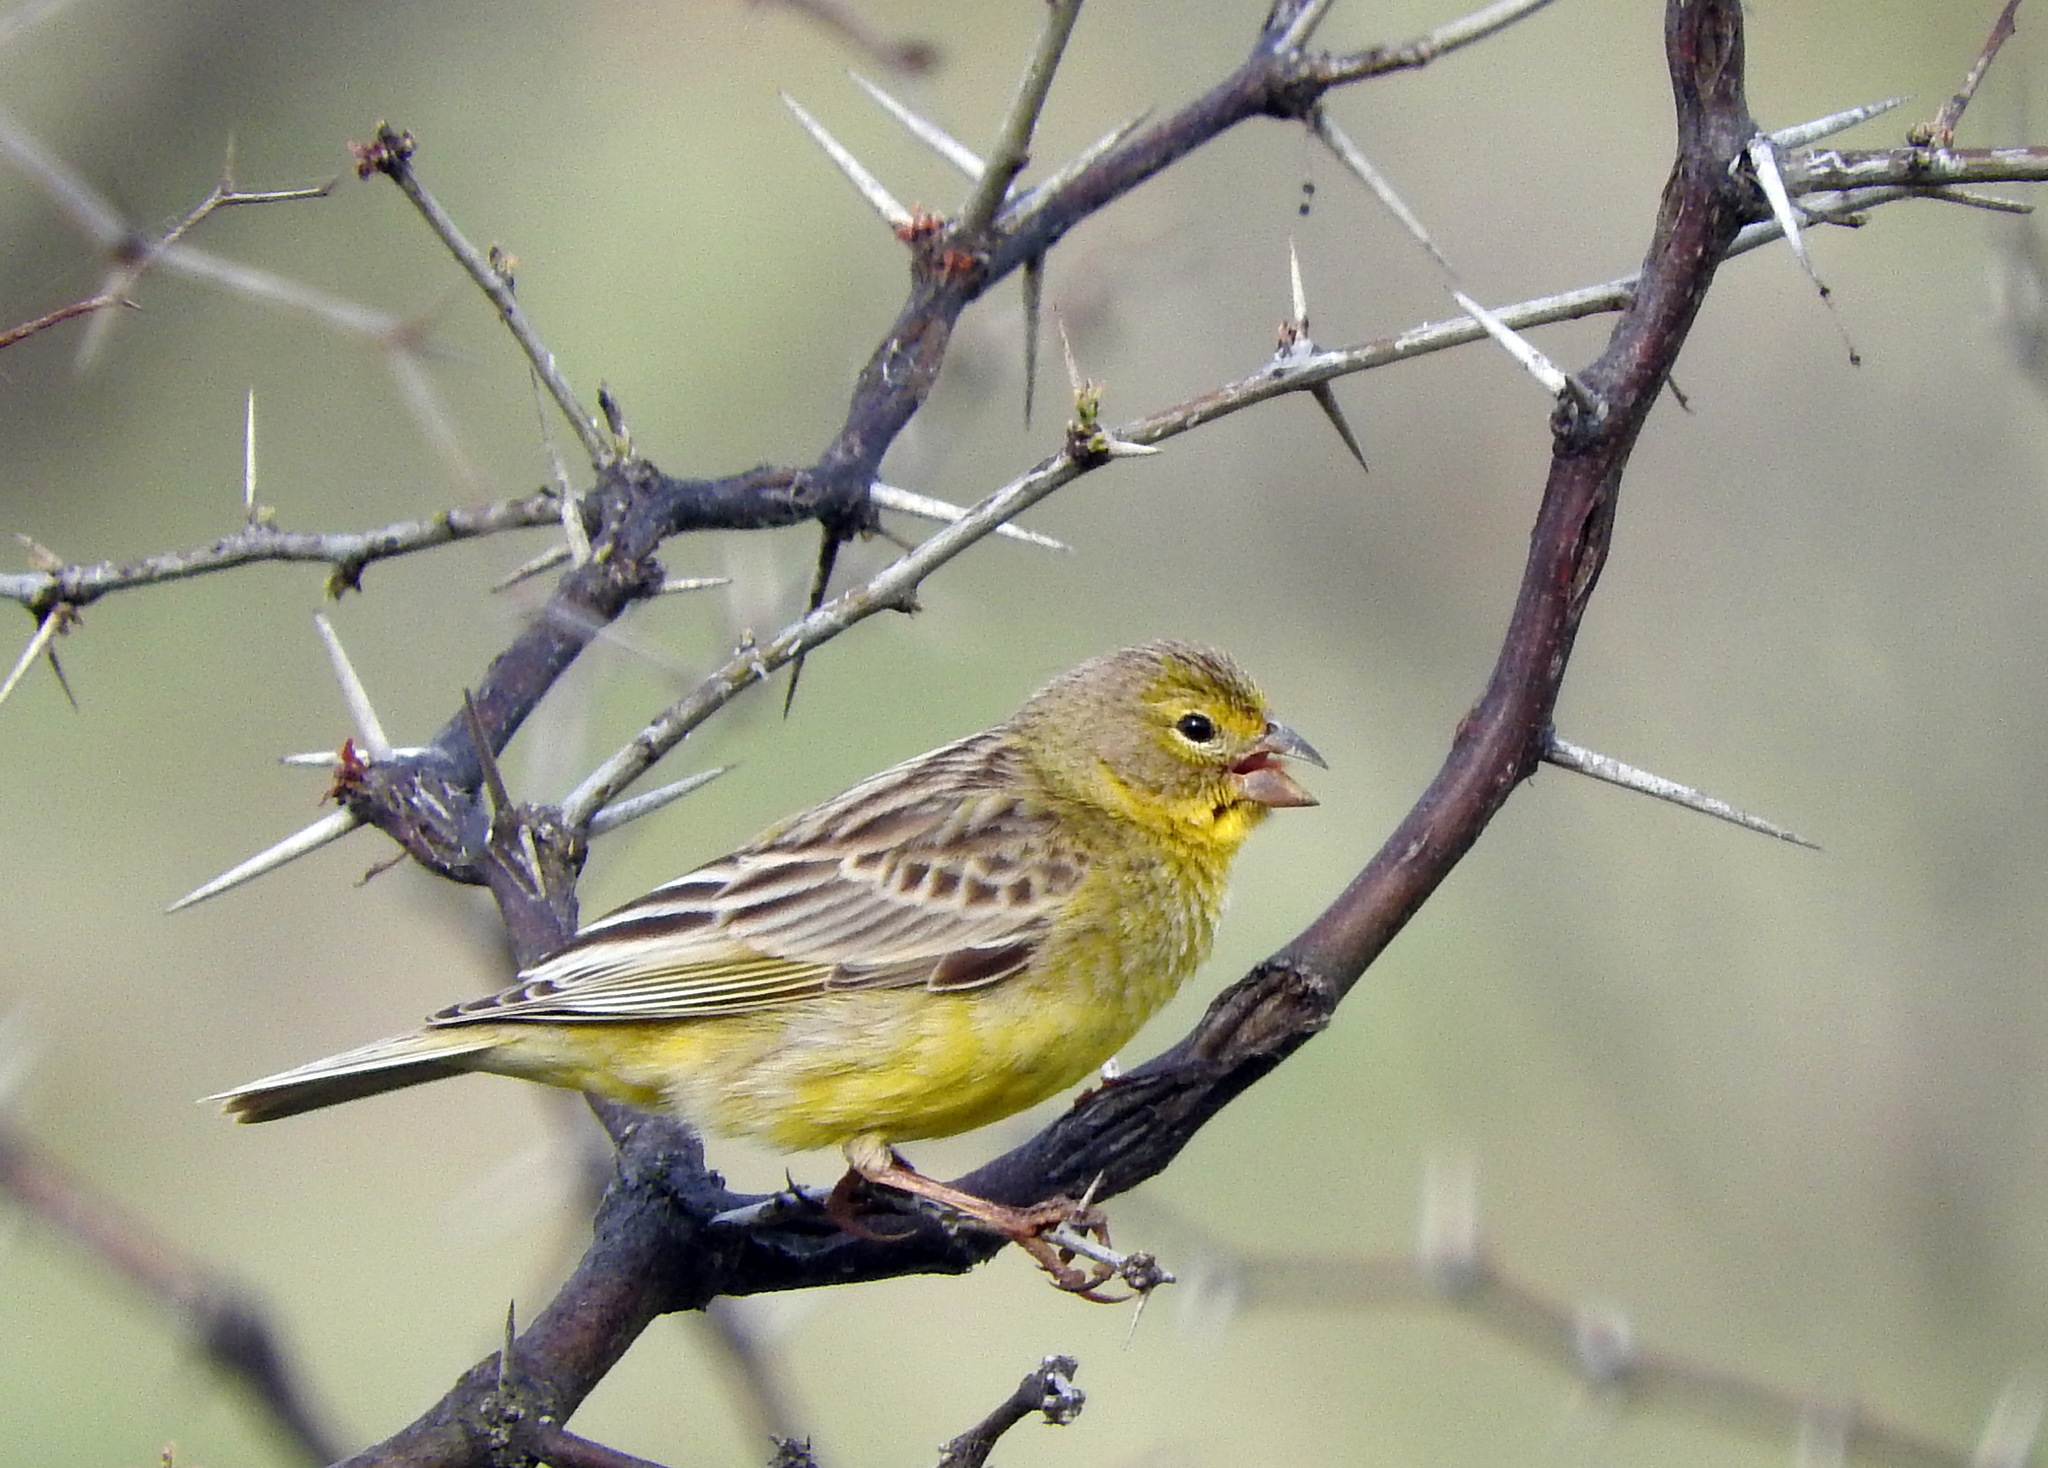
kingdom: Animalia
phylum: Chordata
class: Aves
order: Passeriformes
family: Thraupidae
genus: Sicalis
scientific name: Sicalis luteola
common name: Grassland yellow-finch
